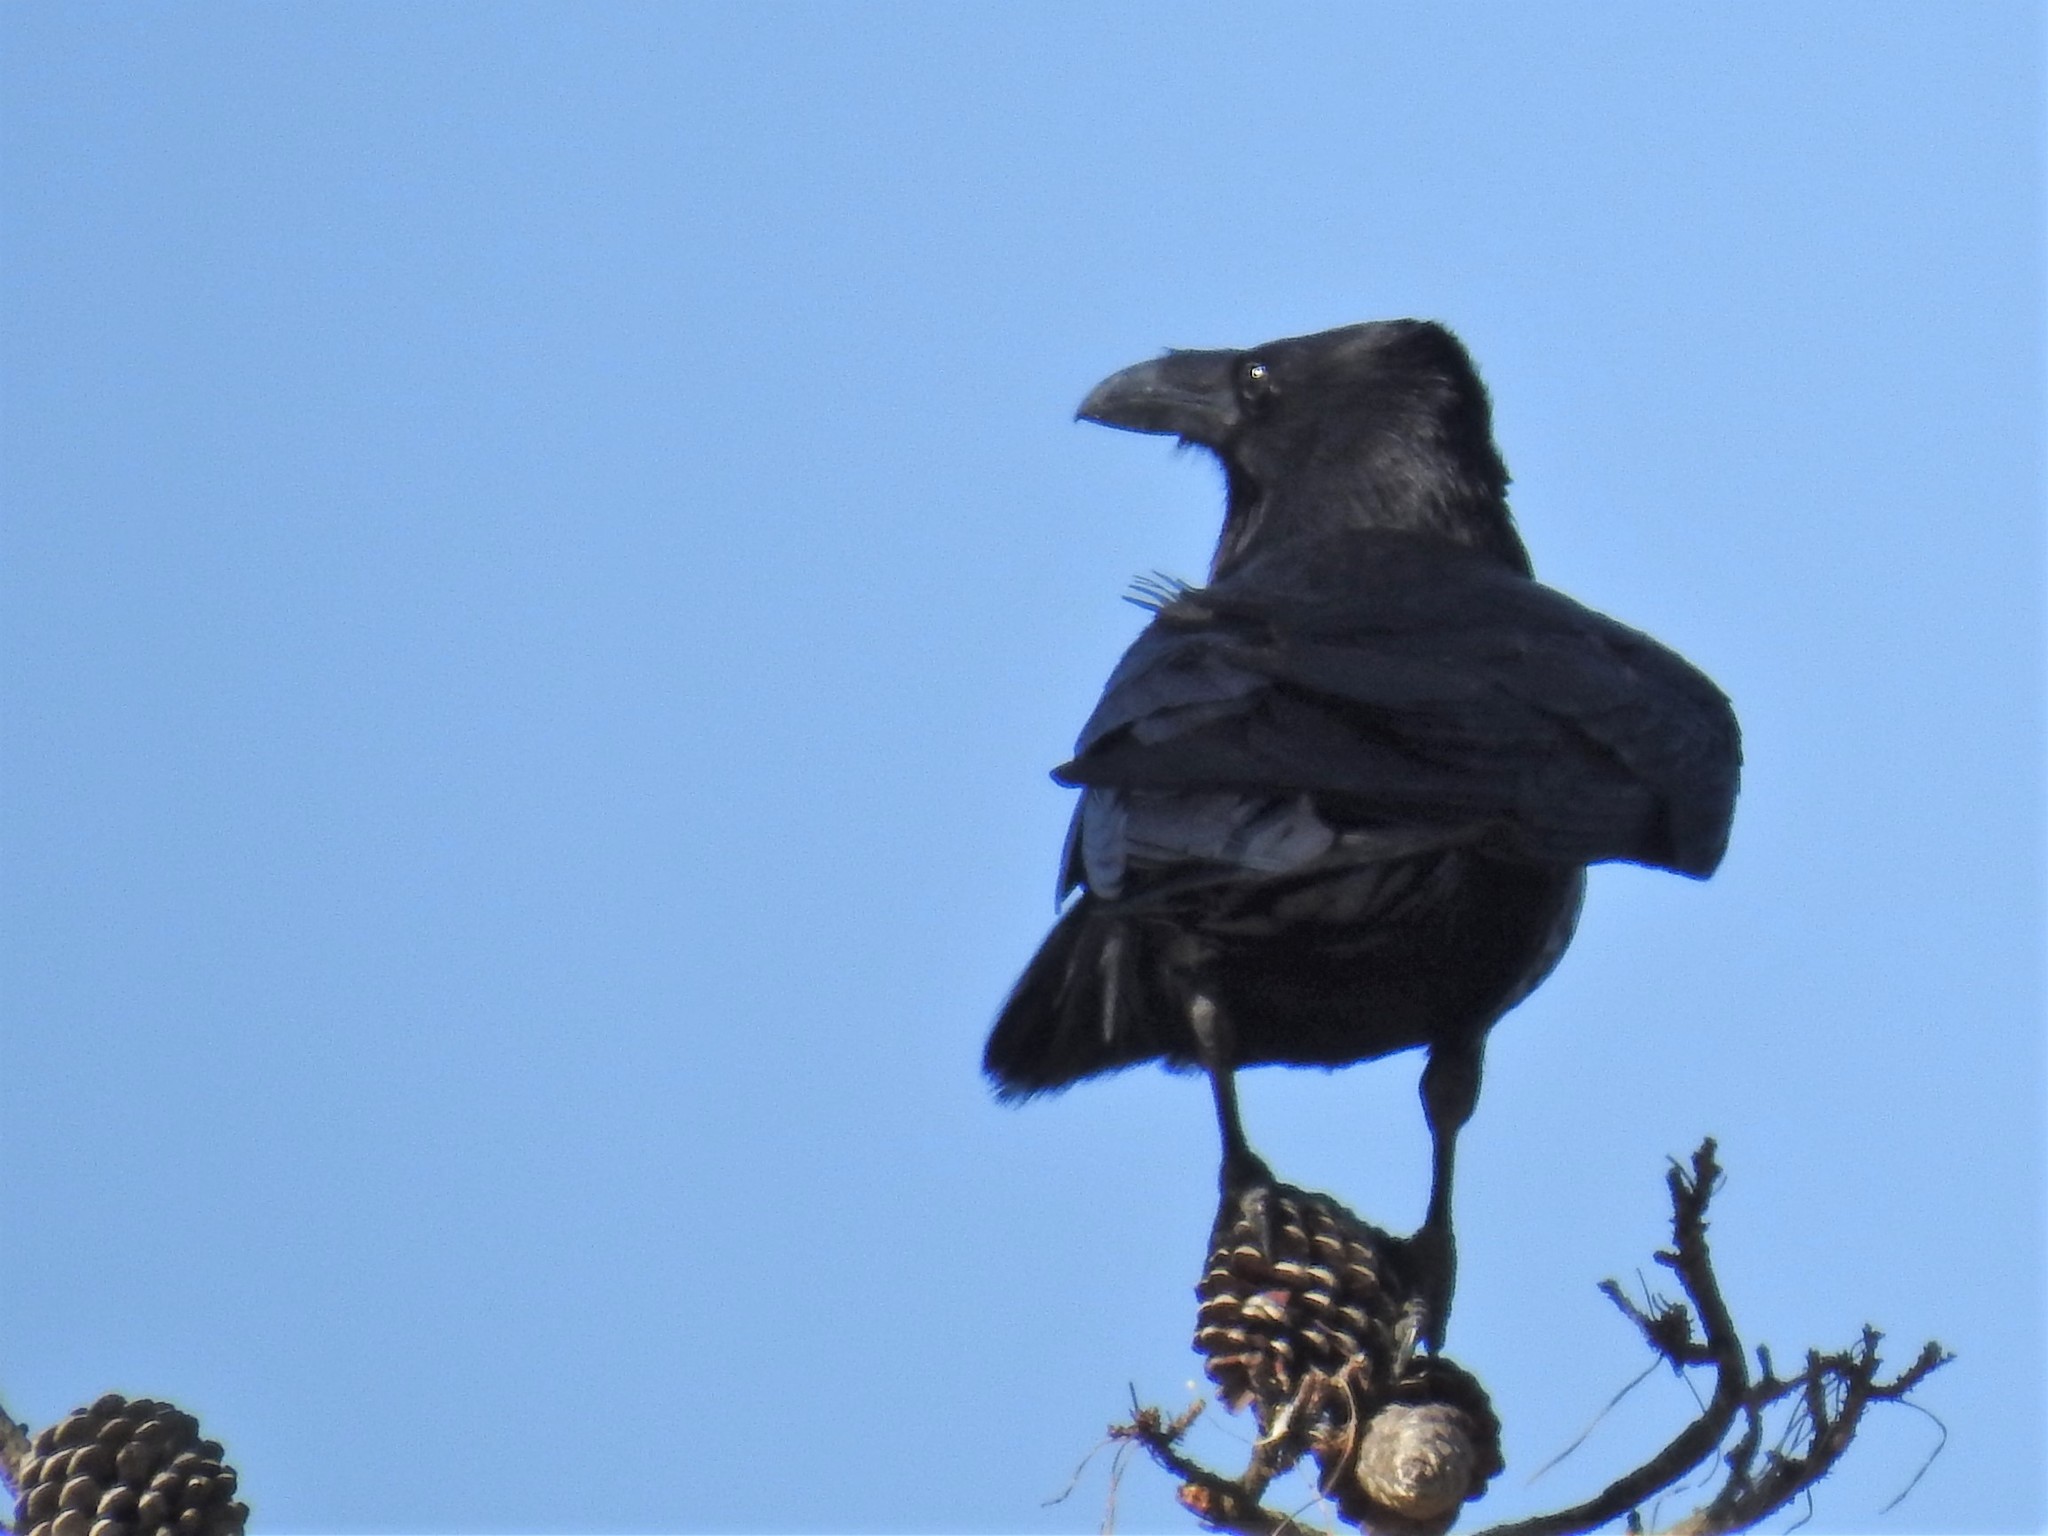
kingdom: Animalia
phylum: Chordata
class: Aves
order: Passeriformes
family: Corvidae
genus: Corvus
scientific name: Corvus corax
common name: Common raven
